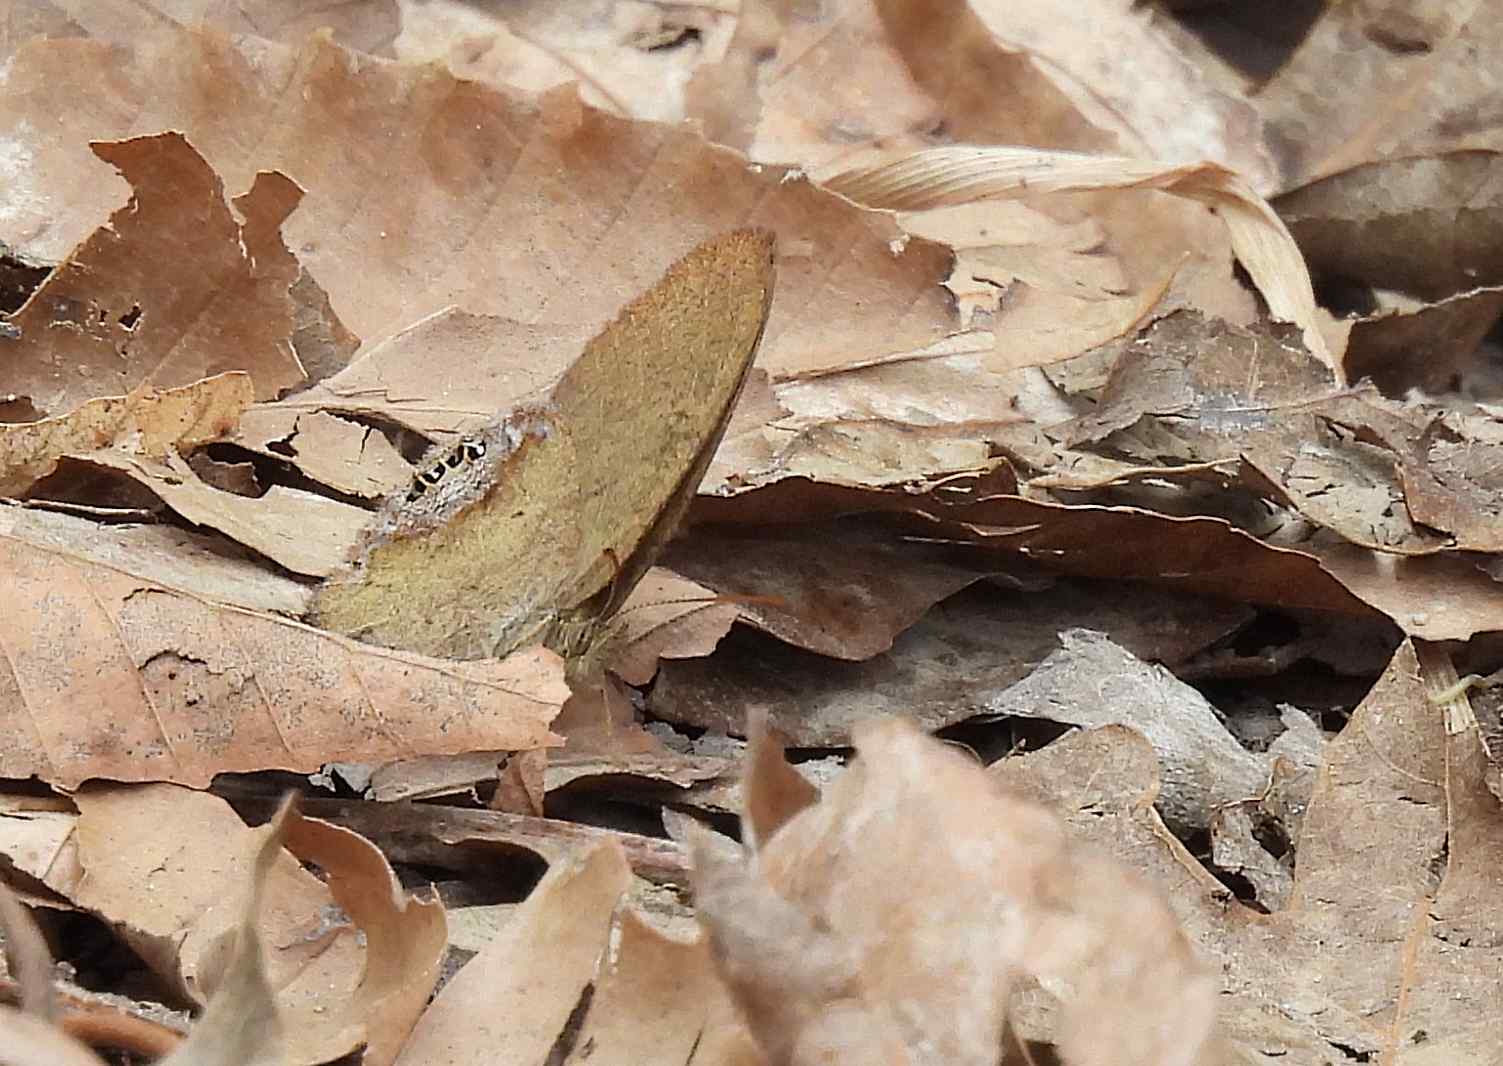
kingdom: Animalia
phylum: Arthropoda
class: Insecta
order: Lepidoptera
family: Nymphalidae
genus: Euptychia
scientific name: Euptychia cornelius
